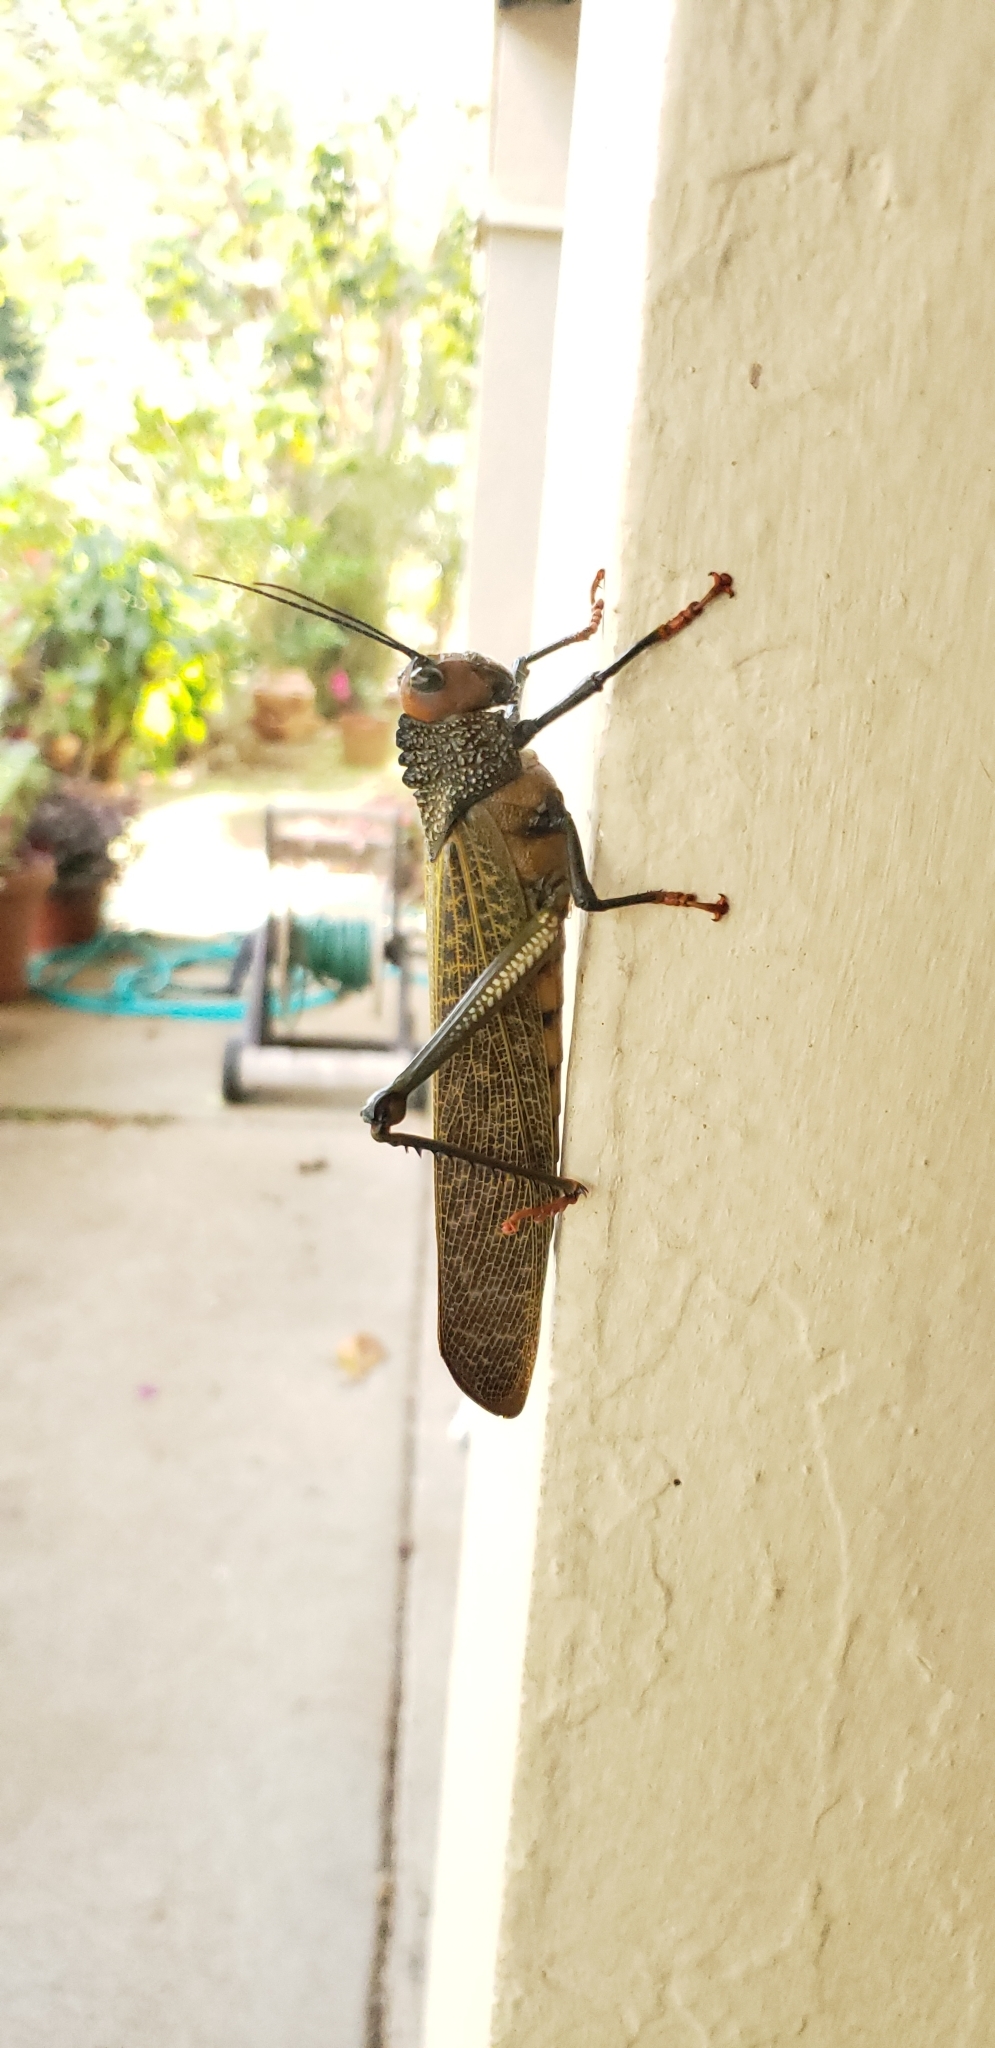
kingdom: Animalia
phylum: Arthropoda
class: Insecta
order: Orthoptera
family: Romaleidae
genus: Tropidacris
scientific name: Tropidacris cristata
